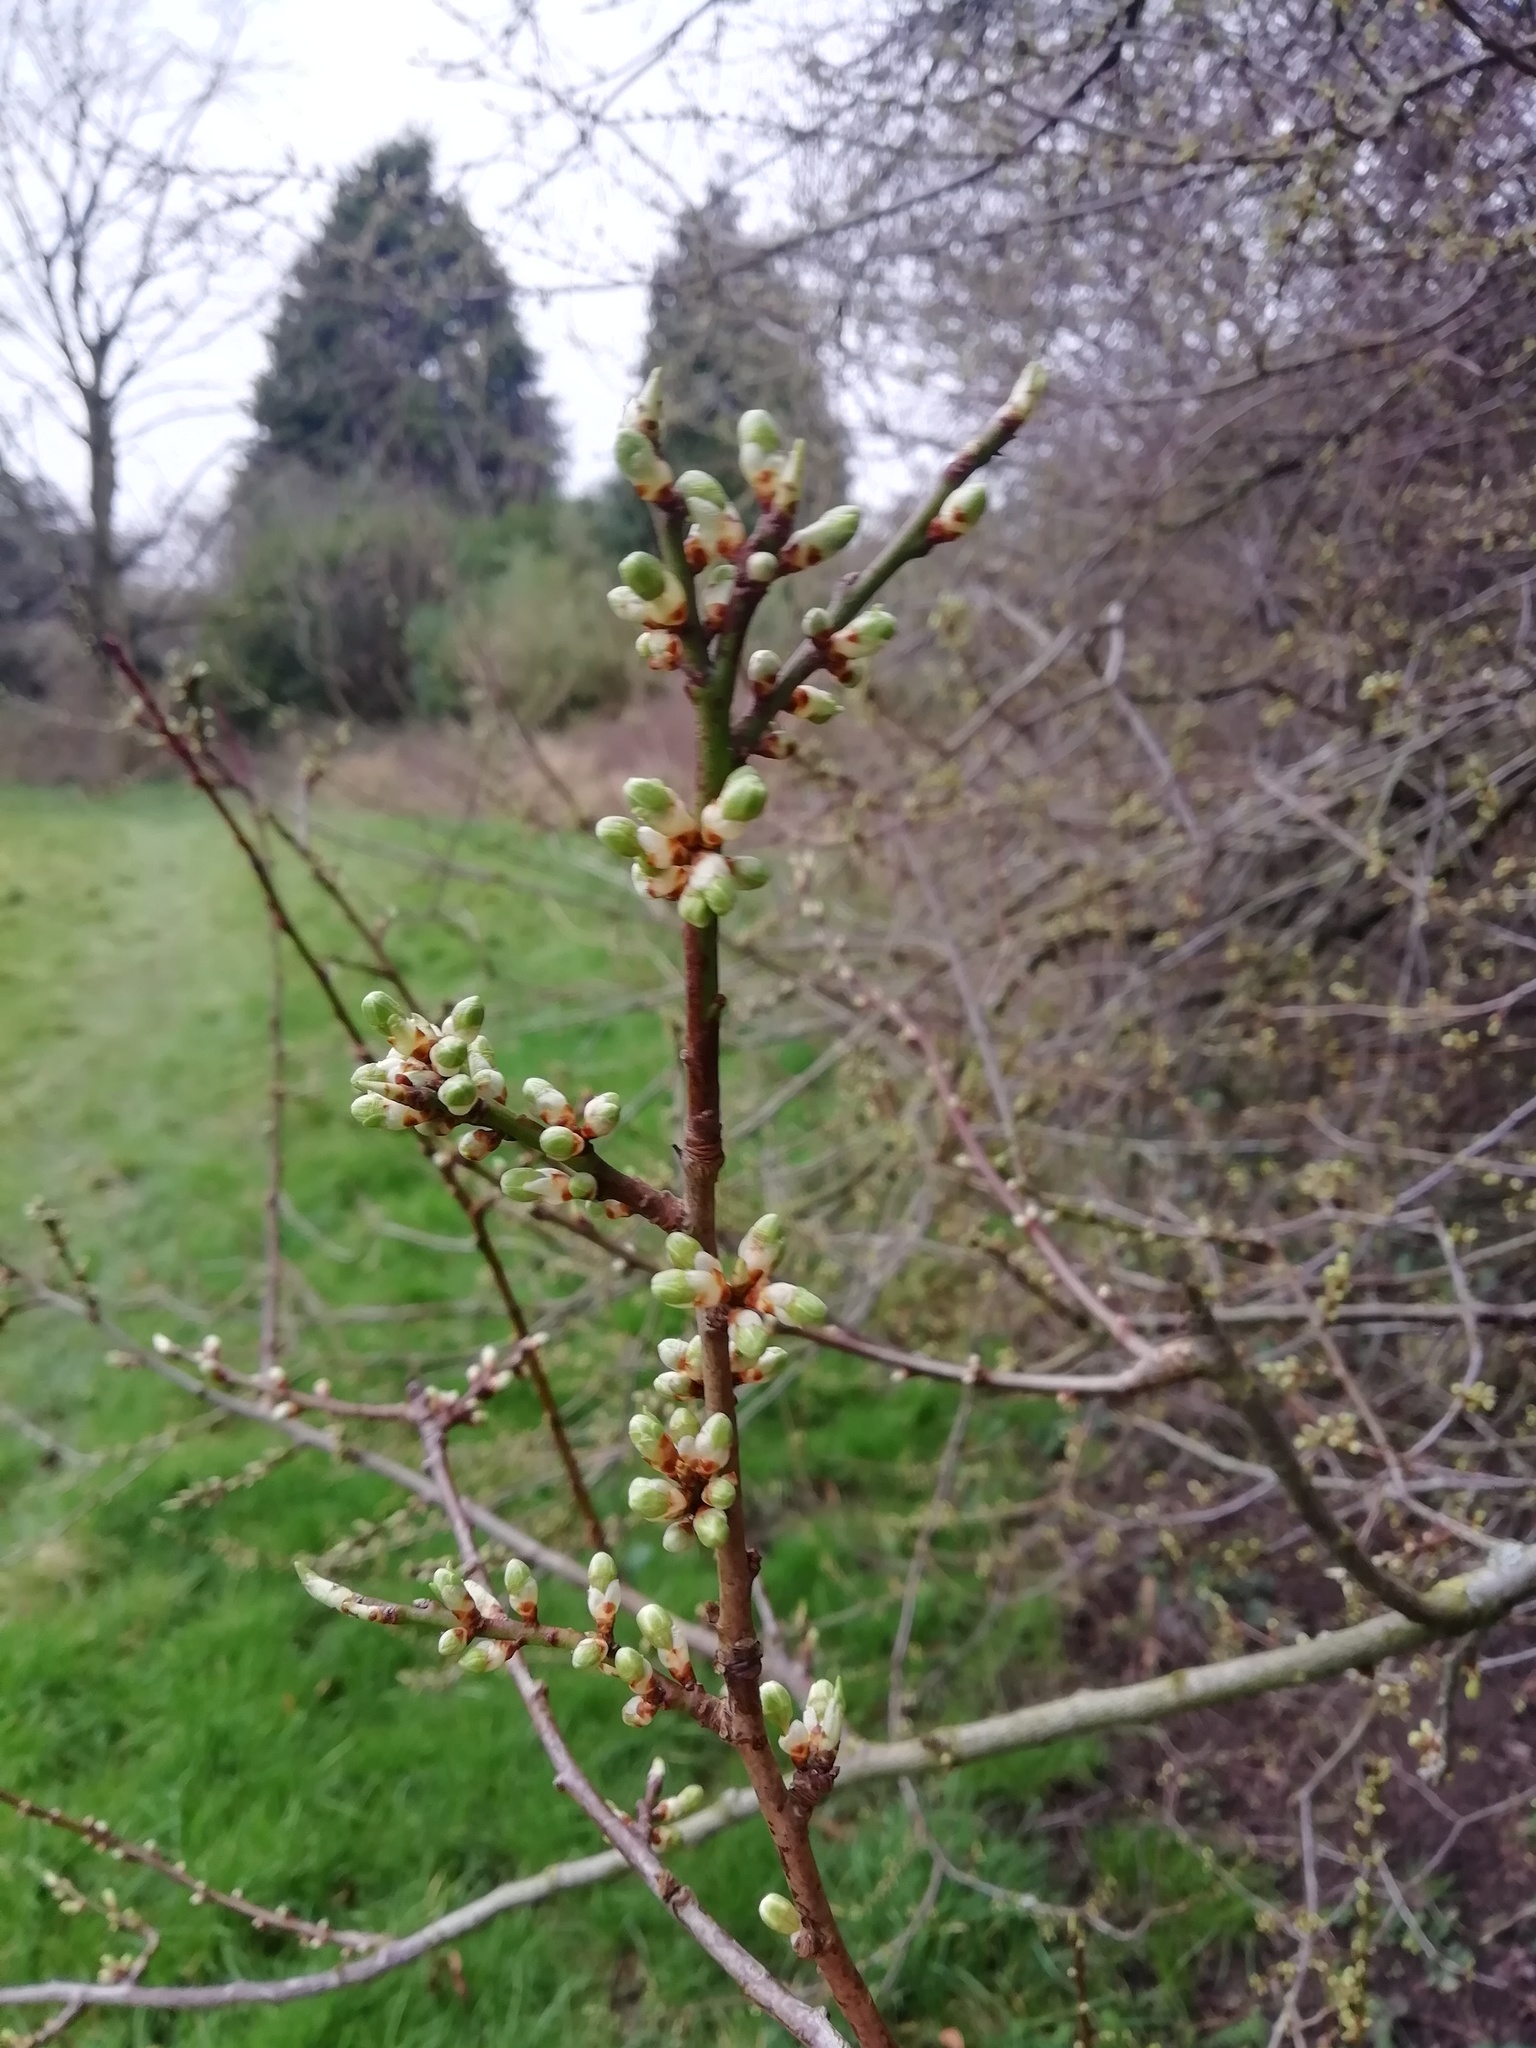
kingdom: Plantae
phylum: Tracheophyta
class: Magnoliopsida
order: Rosales
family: Rosaceae
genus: Crataegus
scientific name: Crataegus monogyna
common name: Hawthorn
